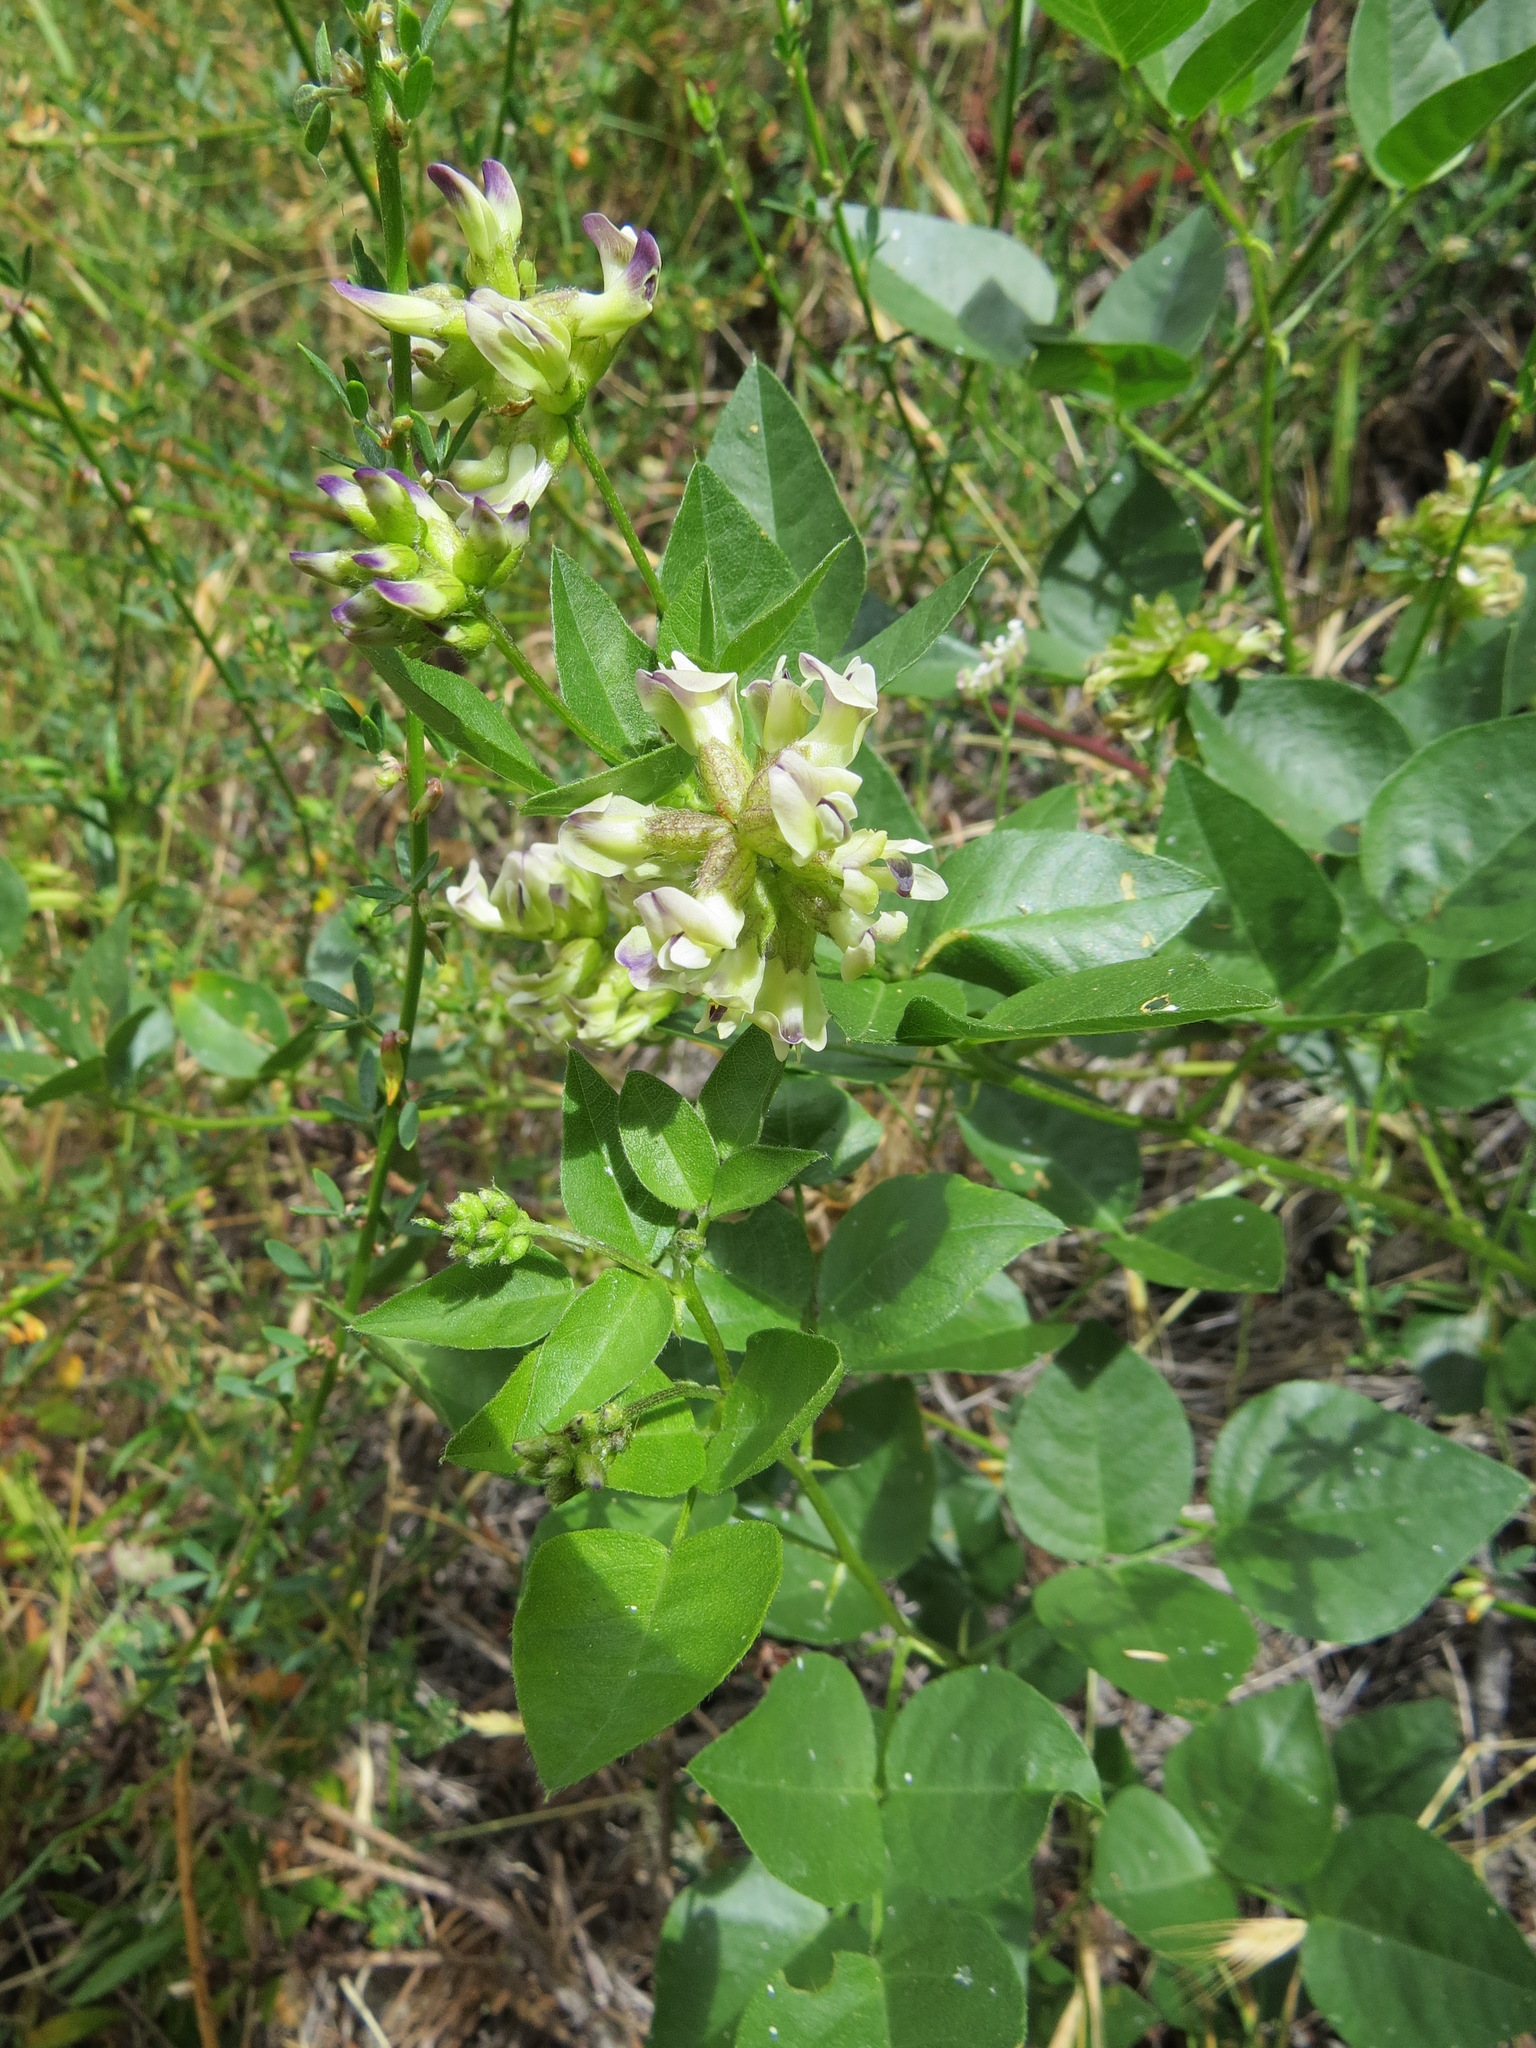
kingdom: Plantae
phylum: Tracheophyta
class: Magnoliopsida
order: Fabales
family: Fabaceae
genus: Rupertia
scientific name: Rupertia physodes
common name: California-tea
